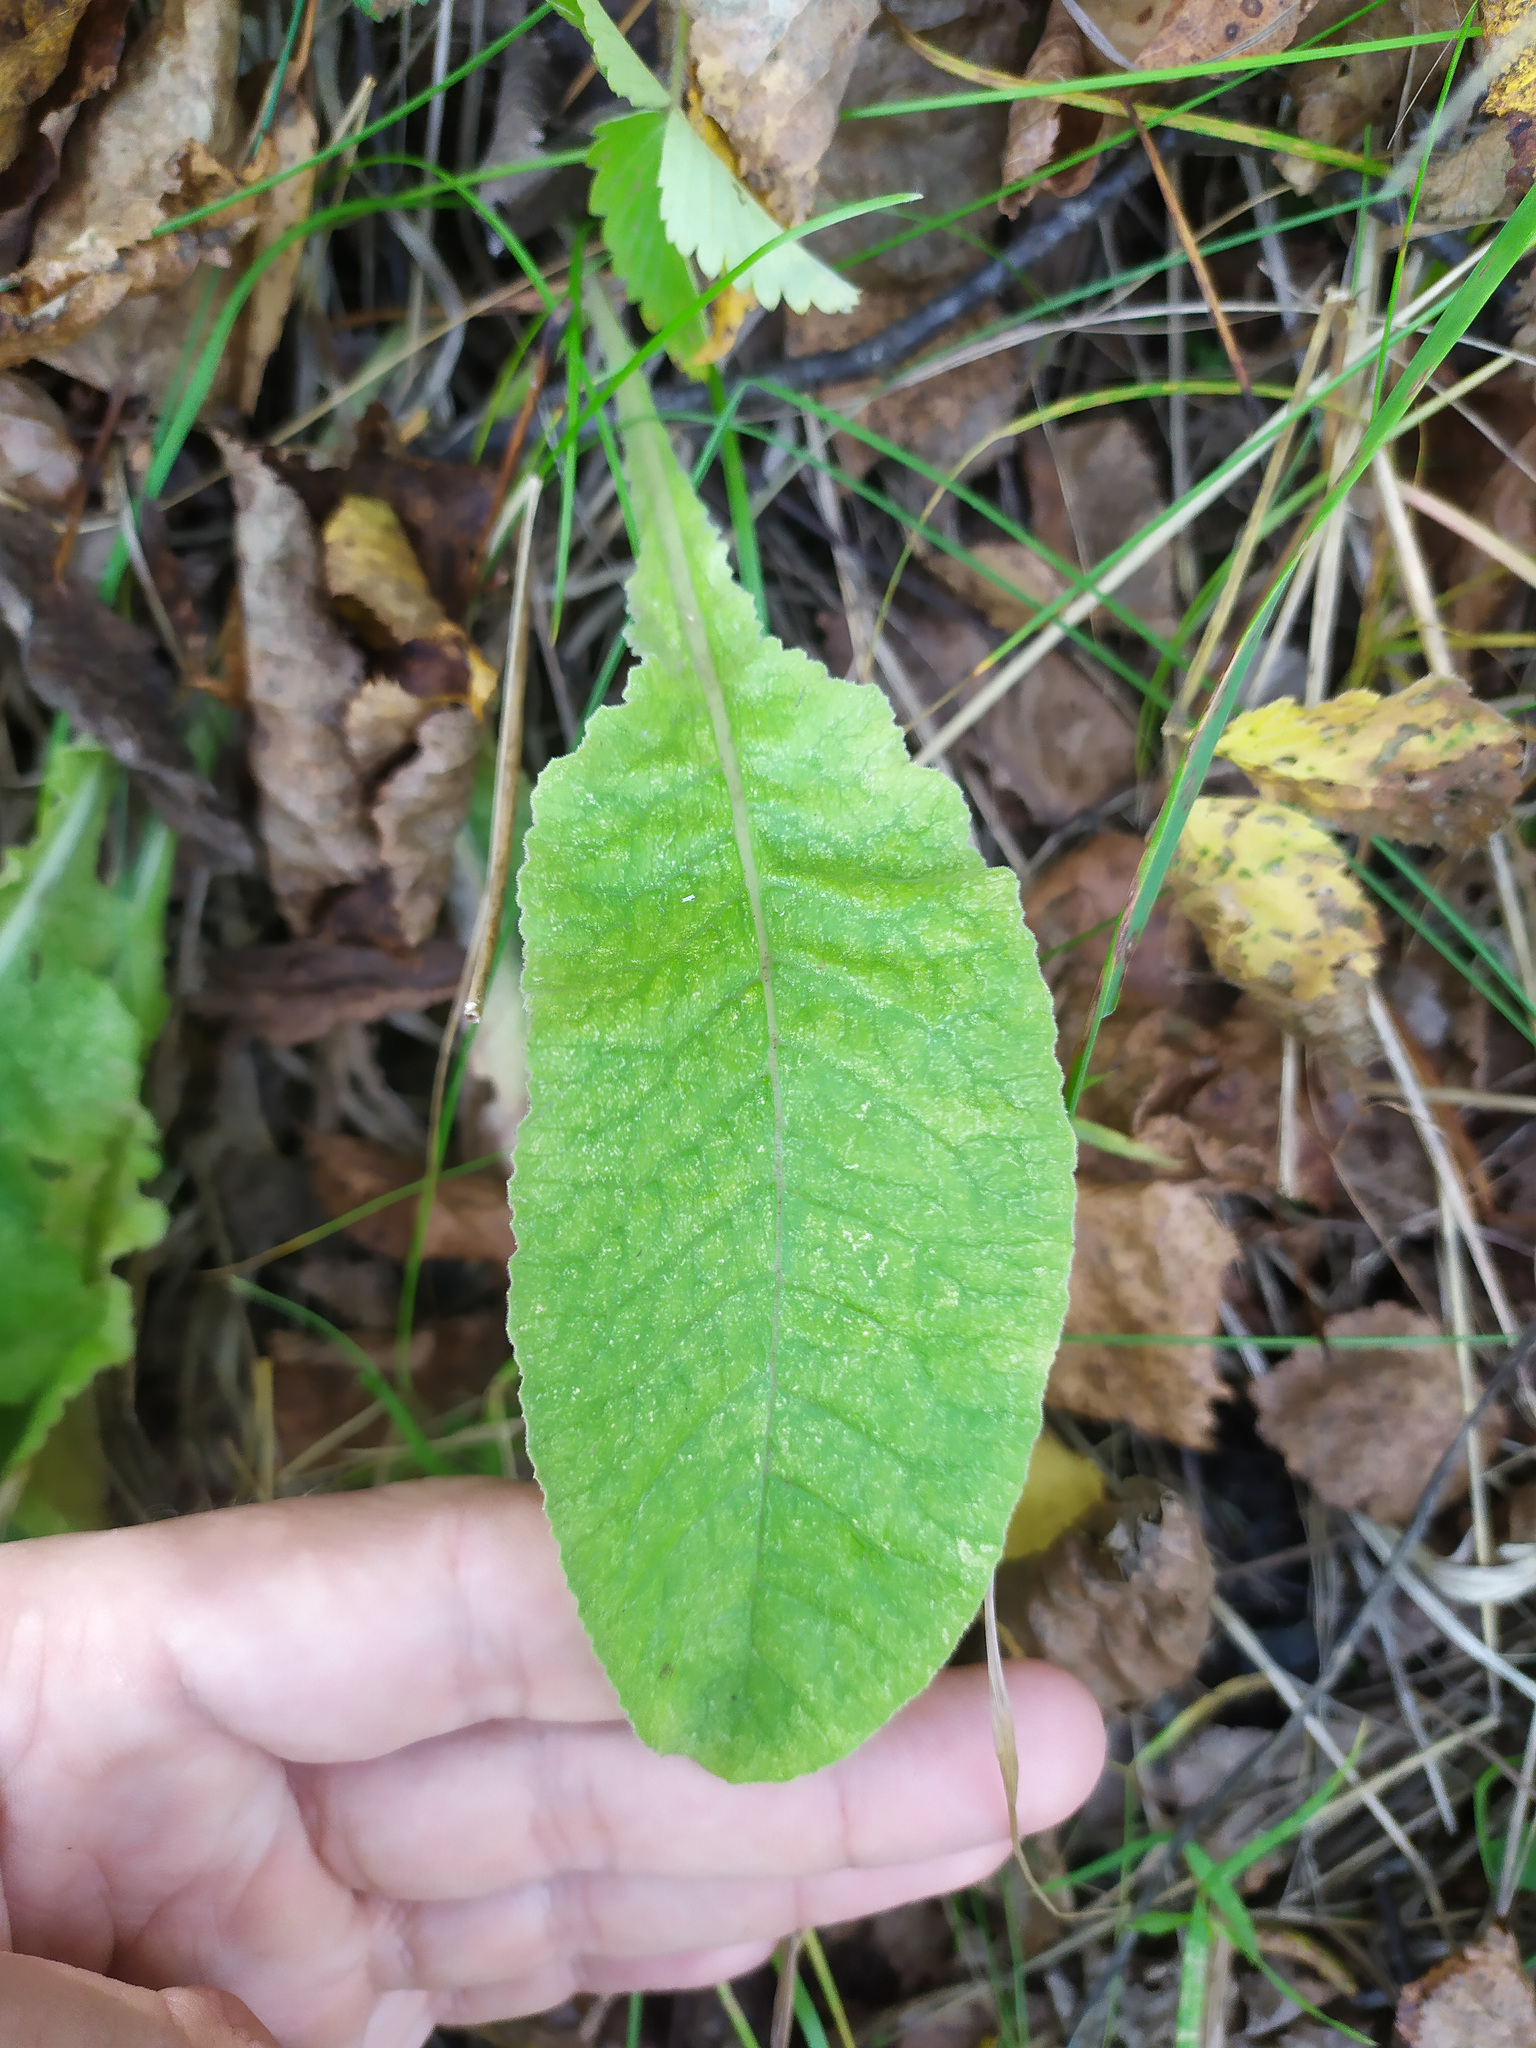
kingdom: Plantae
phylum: Tracheophyta
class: Magnoliopsida
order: Ericales
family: Primulaceae
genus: Primula
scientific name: Primula veris
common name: Cowslip
